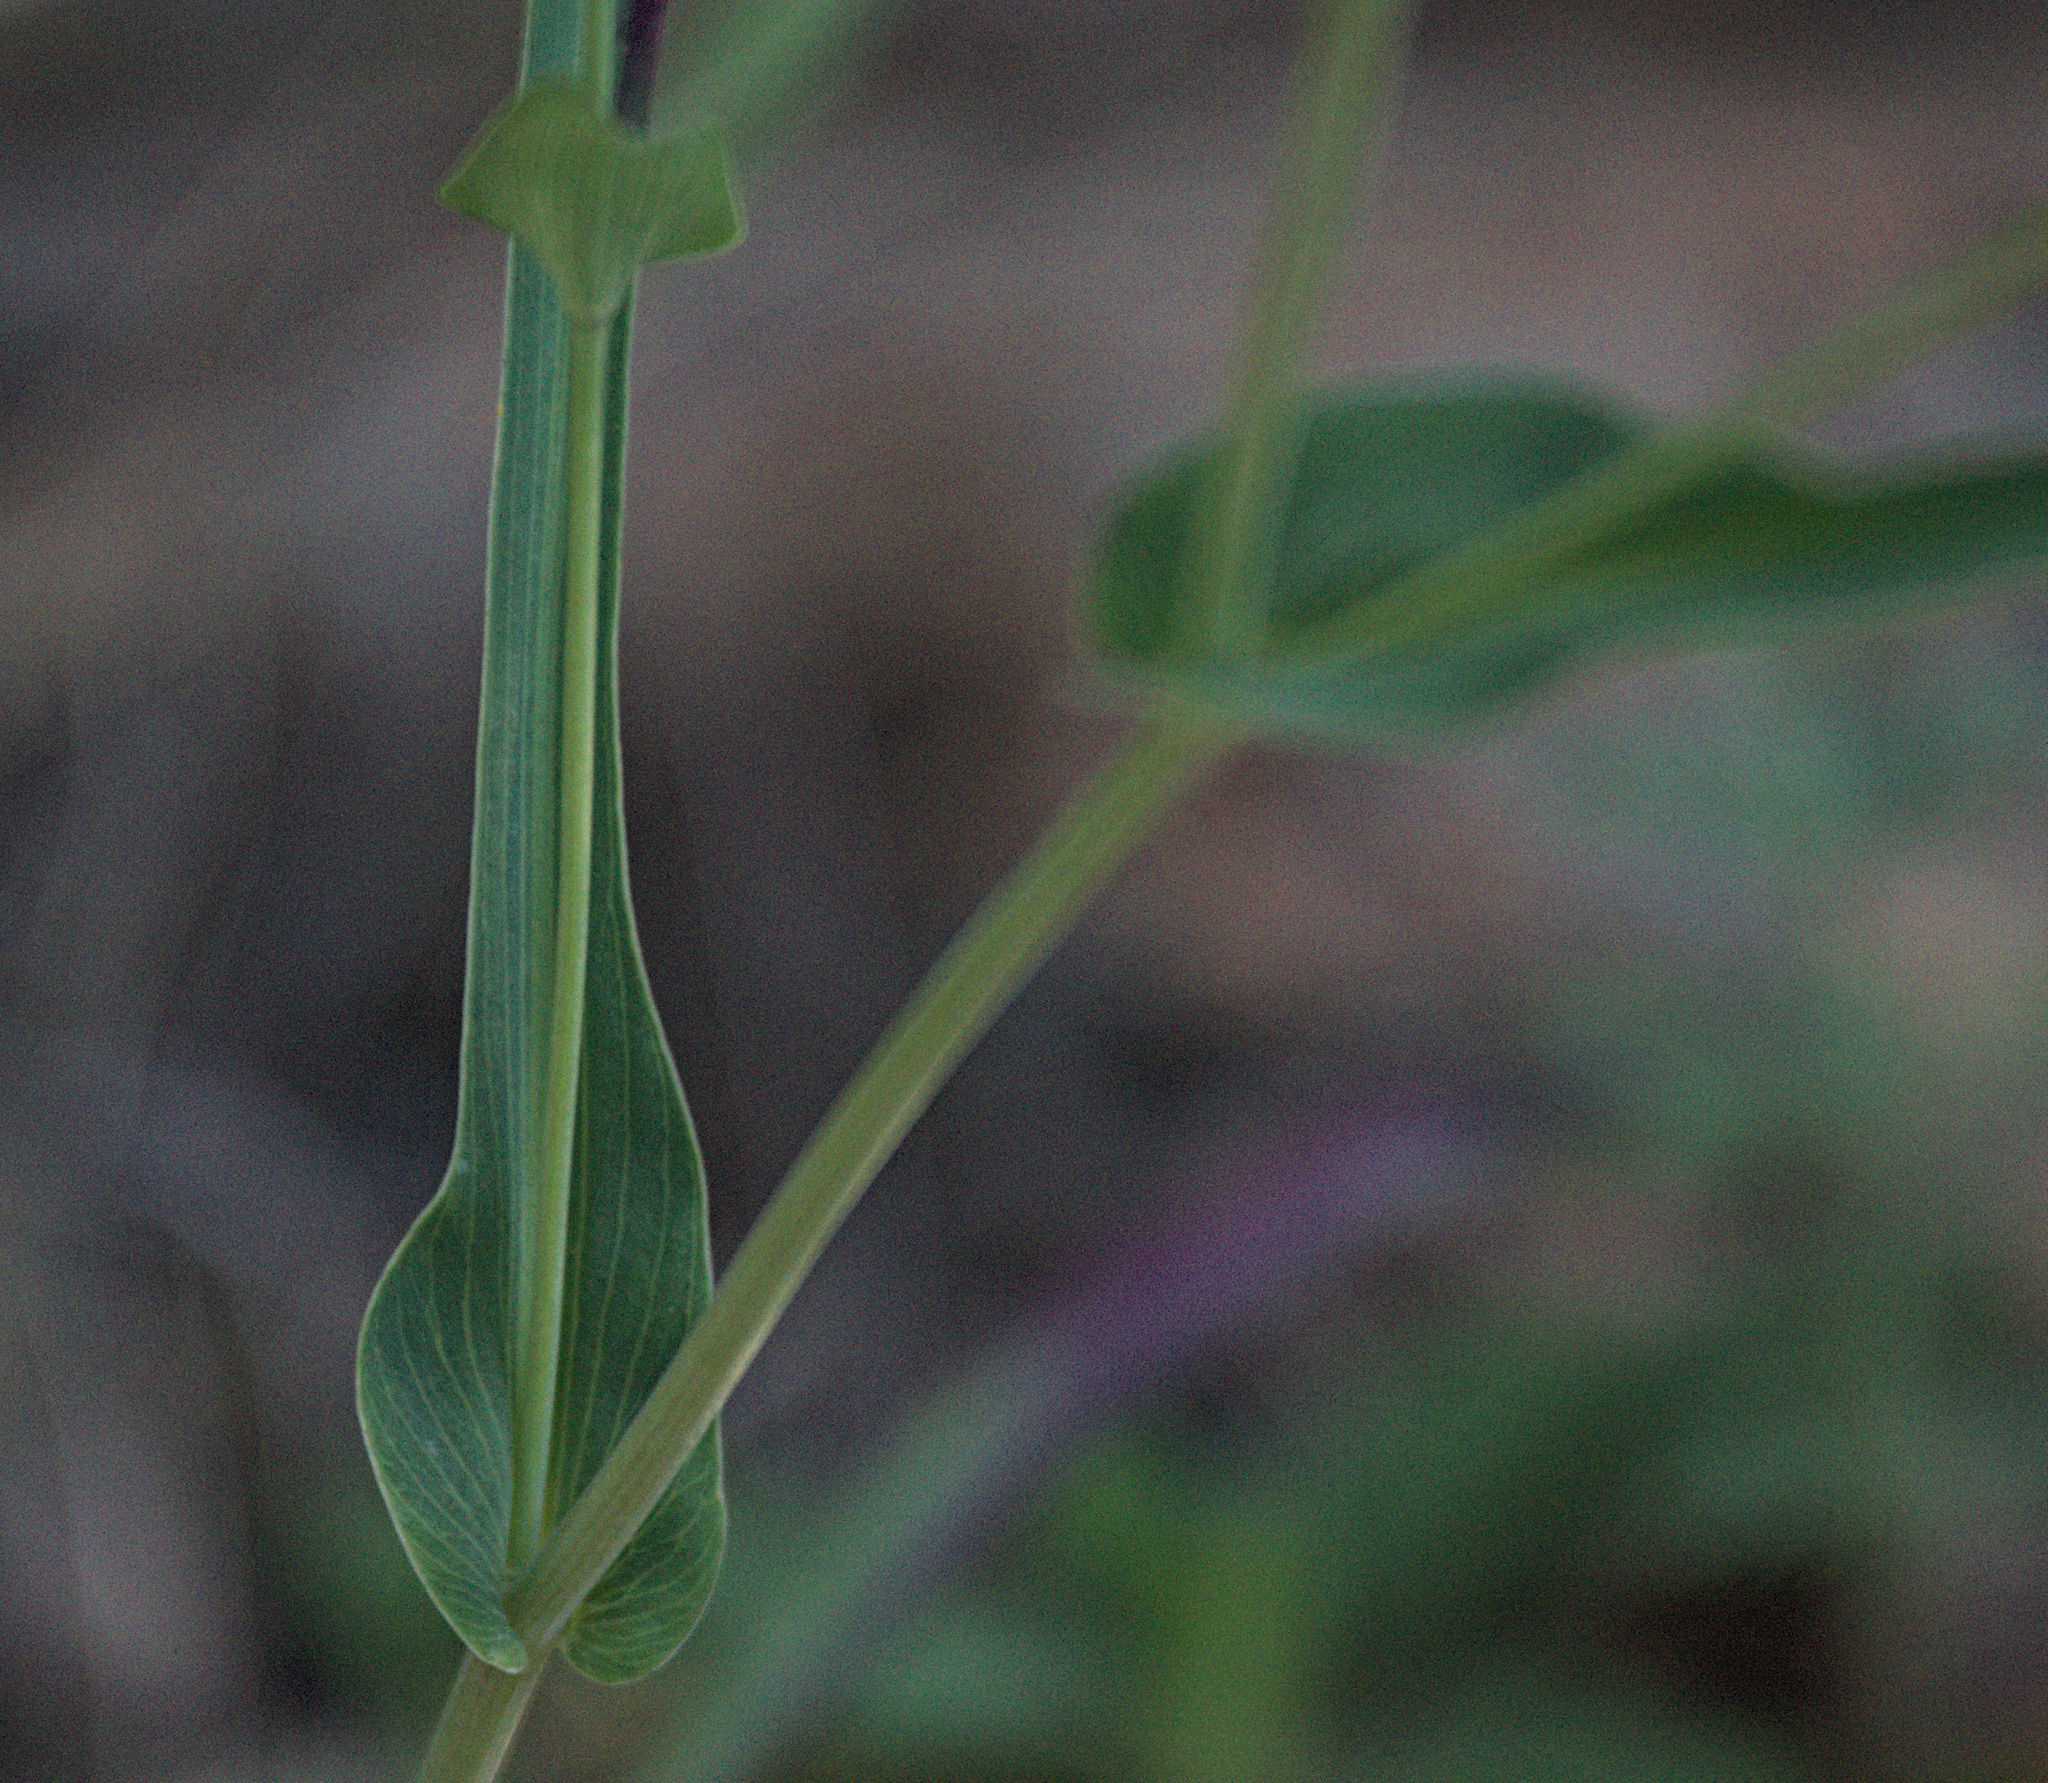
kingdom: Plantae
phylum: Tracheophyta
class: Magnoliopsida
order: Apiales
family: Apiaceae
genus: Bupleurum
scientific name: Bupleurum multinerve
